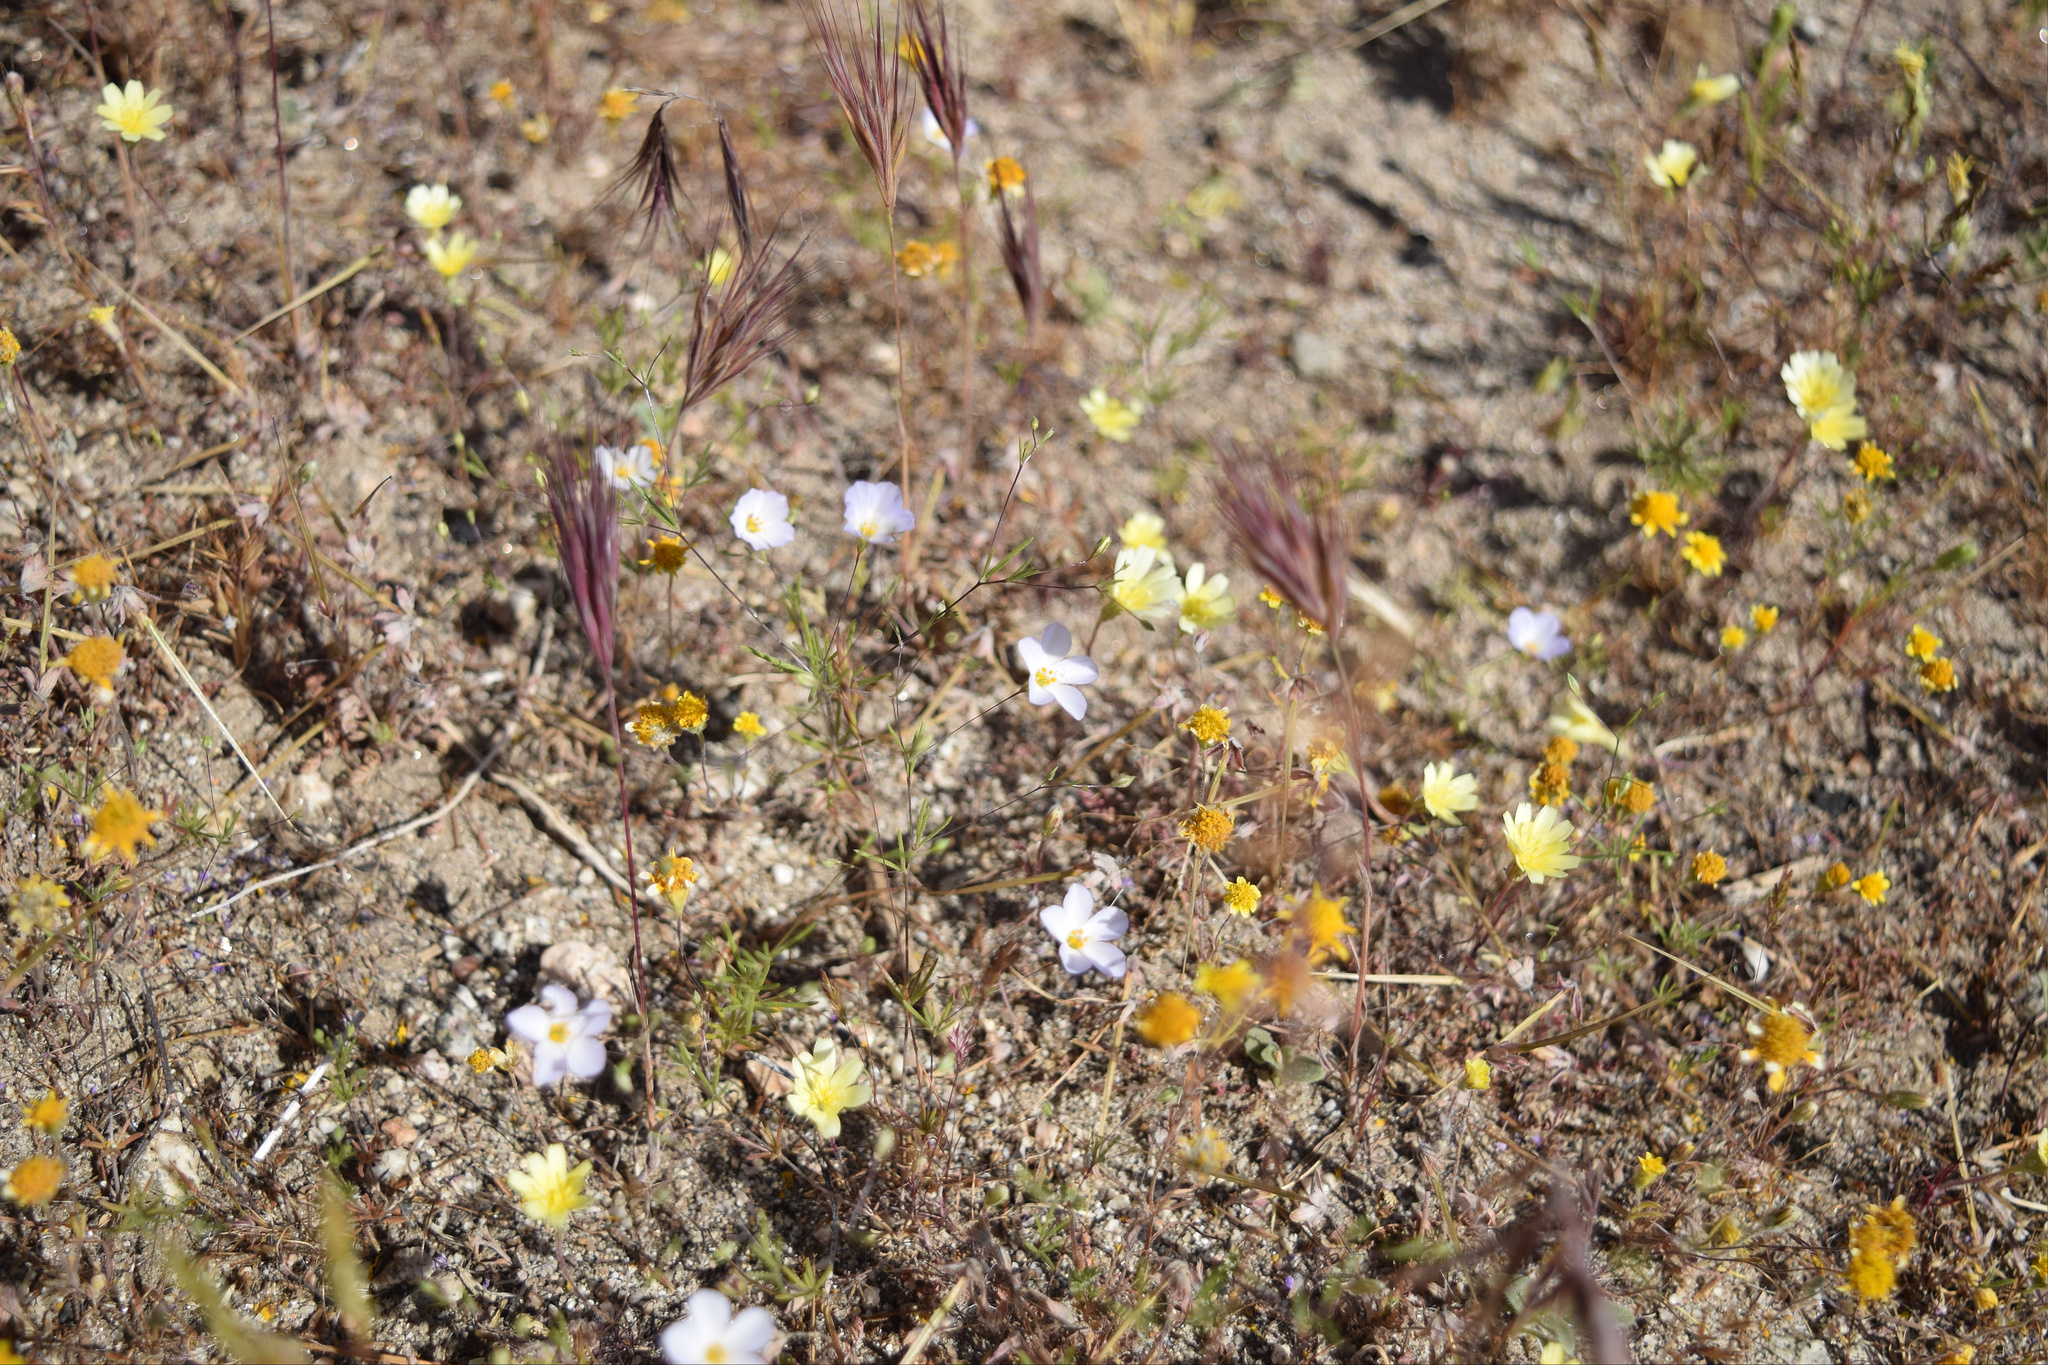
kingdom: Plantae
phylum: Tracheophyta
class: Magnoliopsida
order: Ericales
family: Polemoniaceae
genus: Leptosiphon
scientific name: Leptosiphon liniflorus
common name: Narrowflower flaxflower
